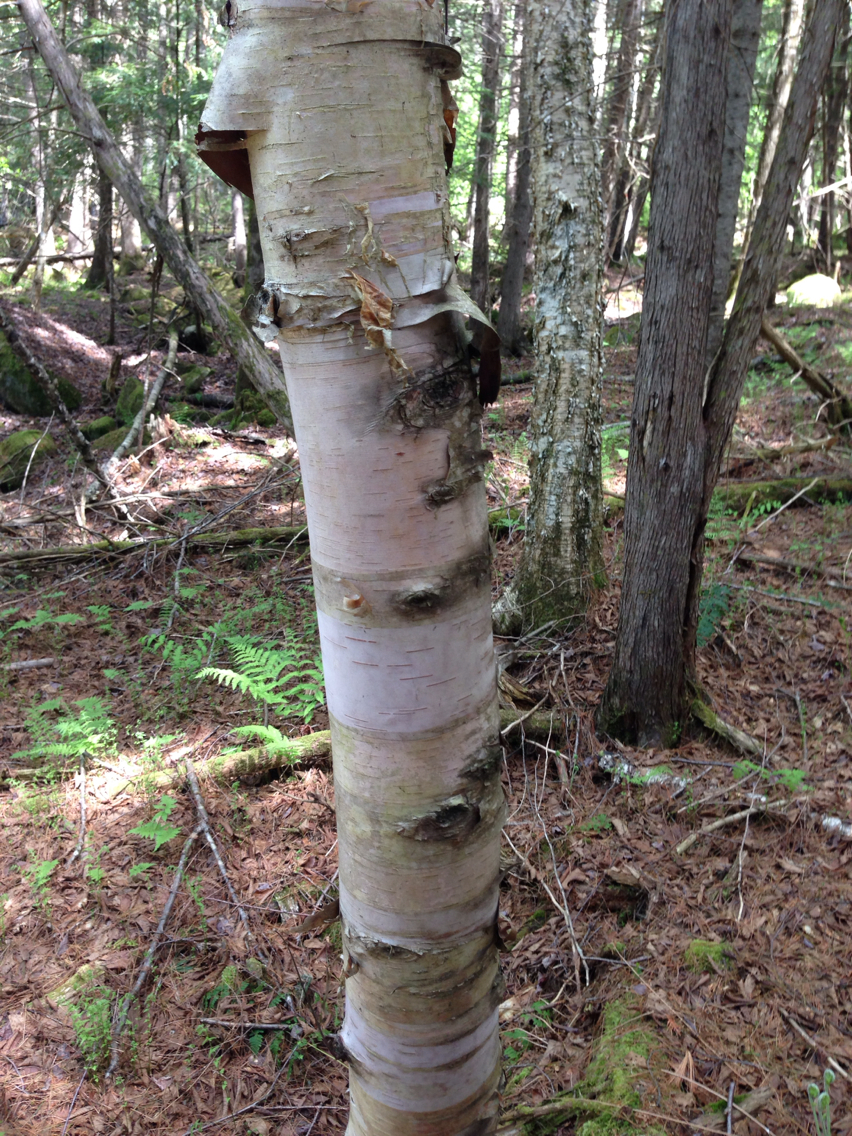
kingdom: Plantae
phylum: Tracheophyta
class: Magnoliopsida
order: Fagales
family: Betulaceae
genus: Betula
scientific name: Betula papyrifera
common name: Paper birch
